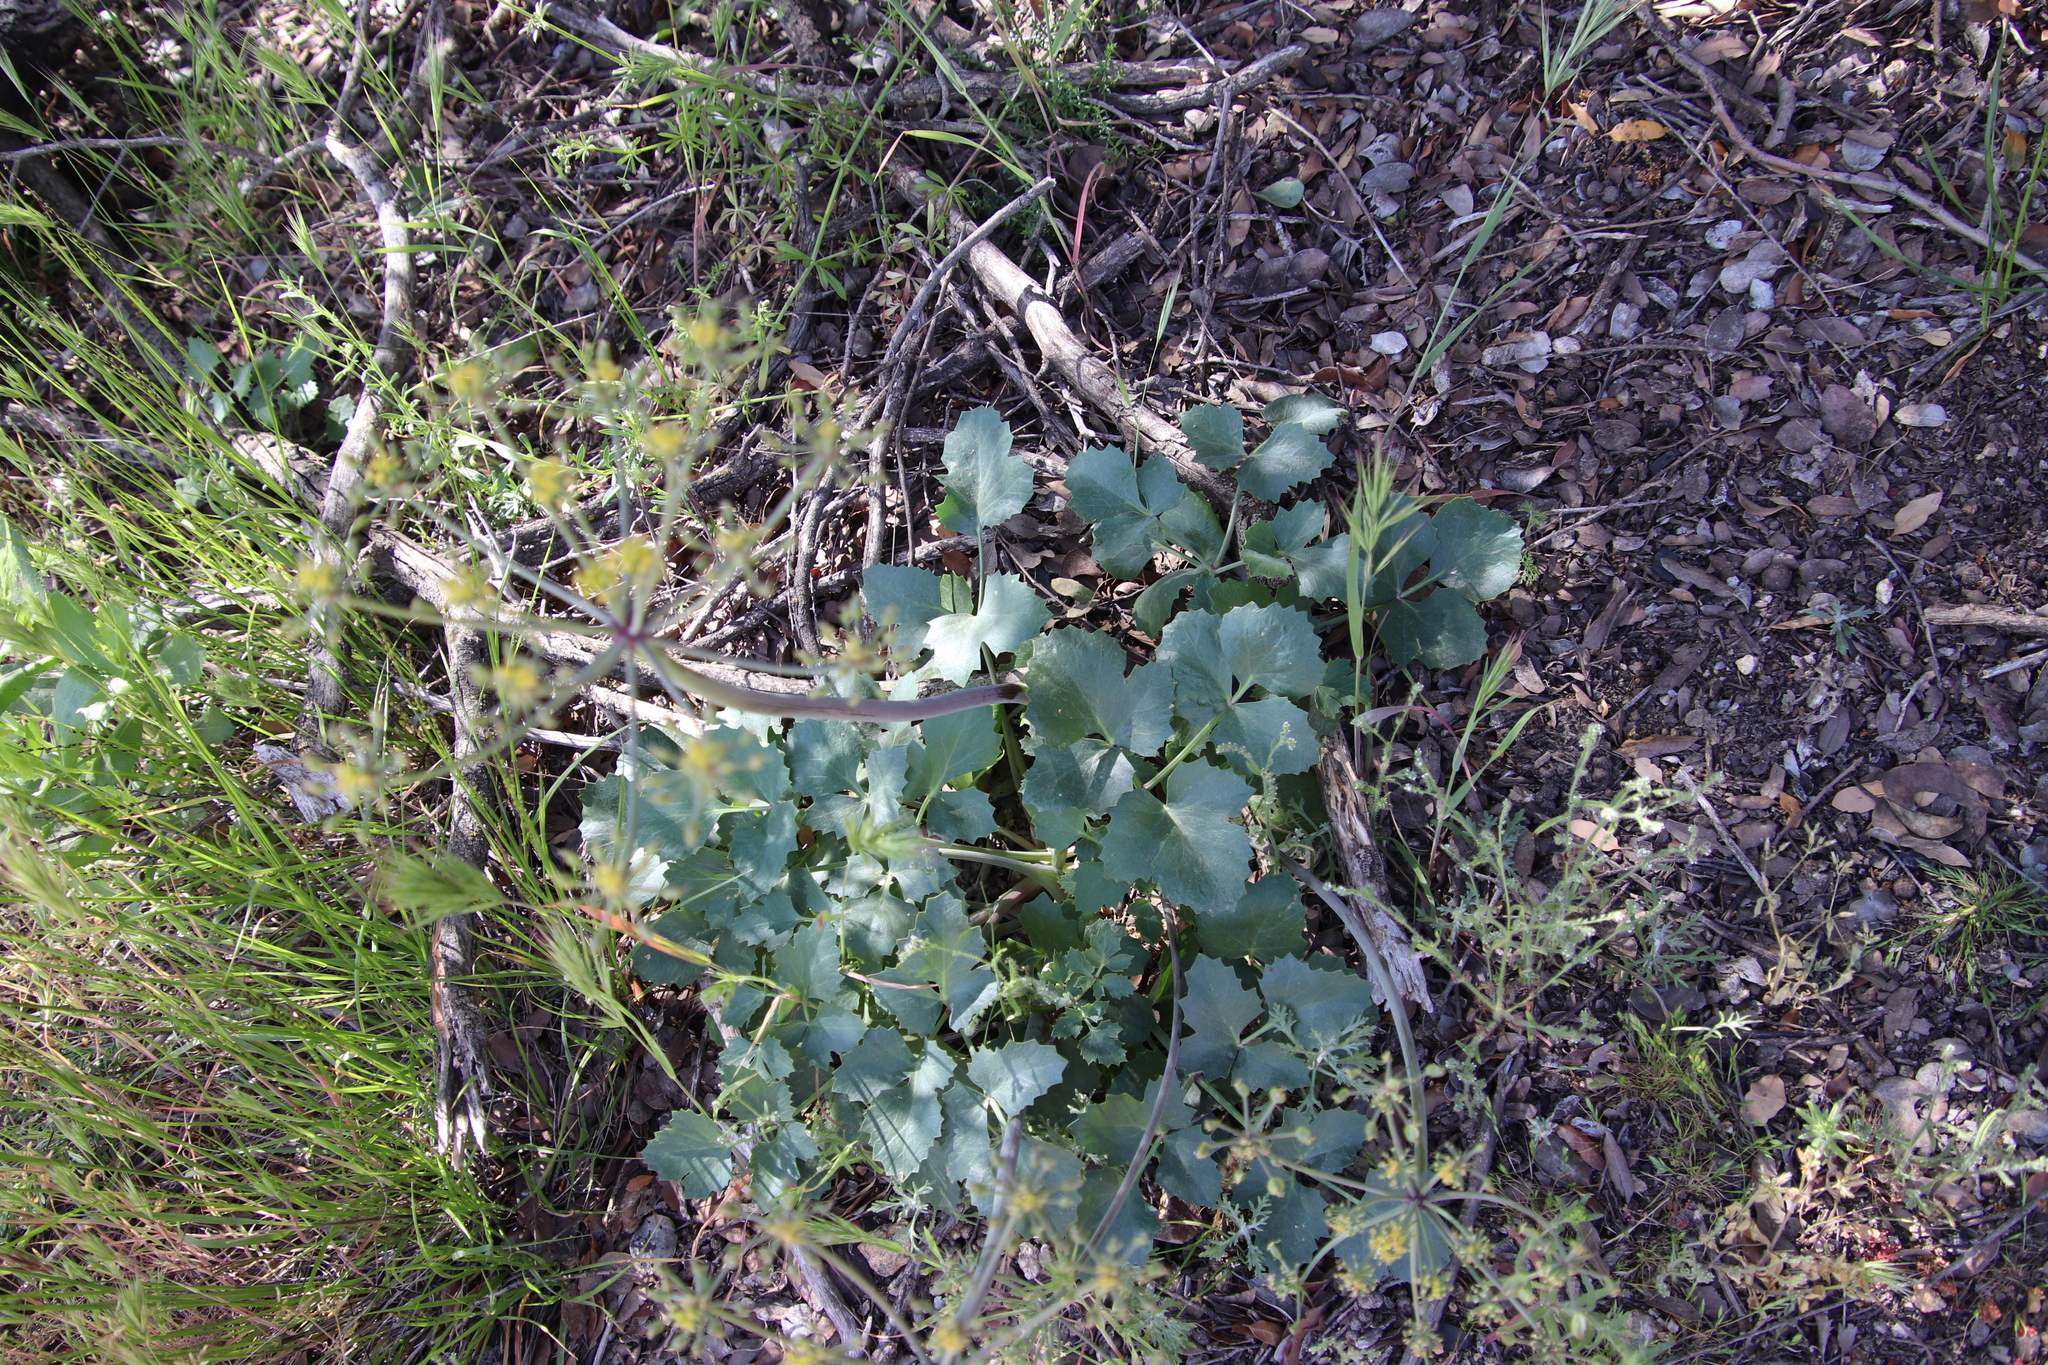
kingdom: Plantae
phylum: Tracheophyta
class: Magnoliopsida
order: Apiales
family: Apiaceae
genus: Lomatium
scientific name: Lomatium lucidum
